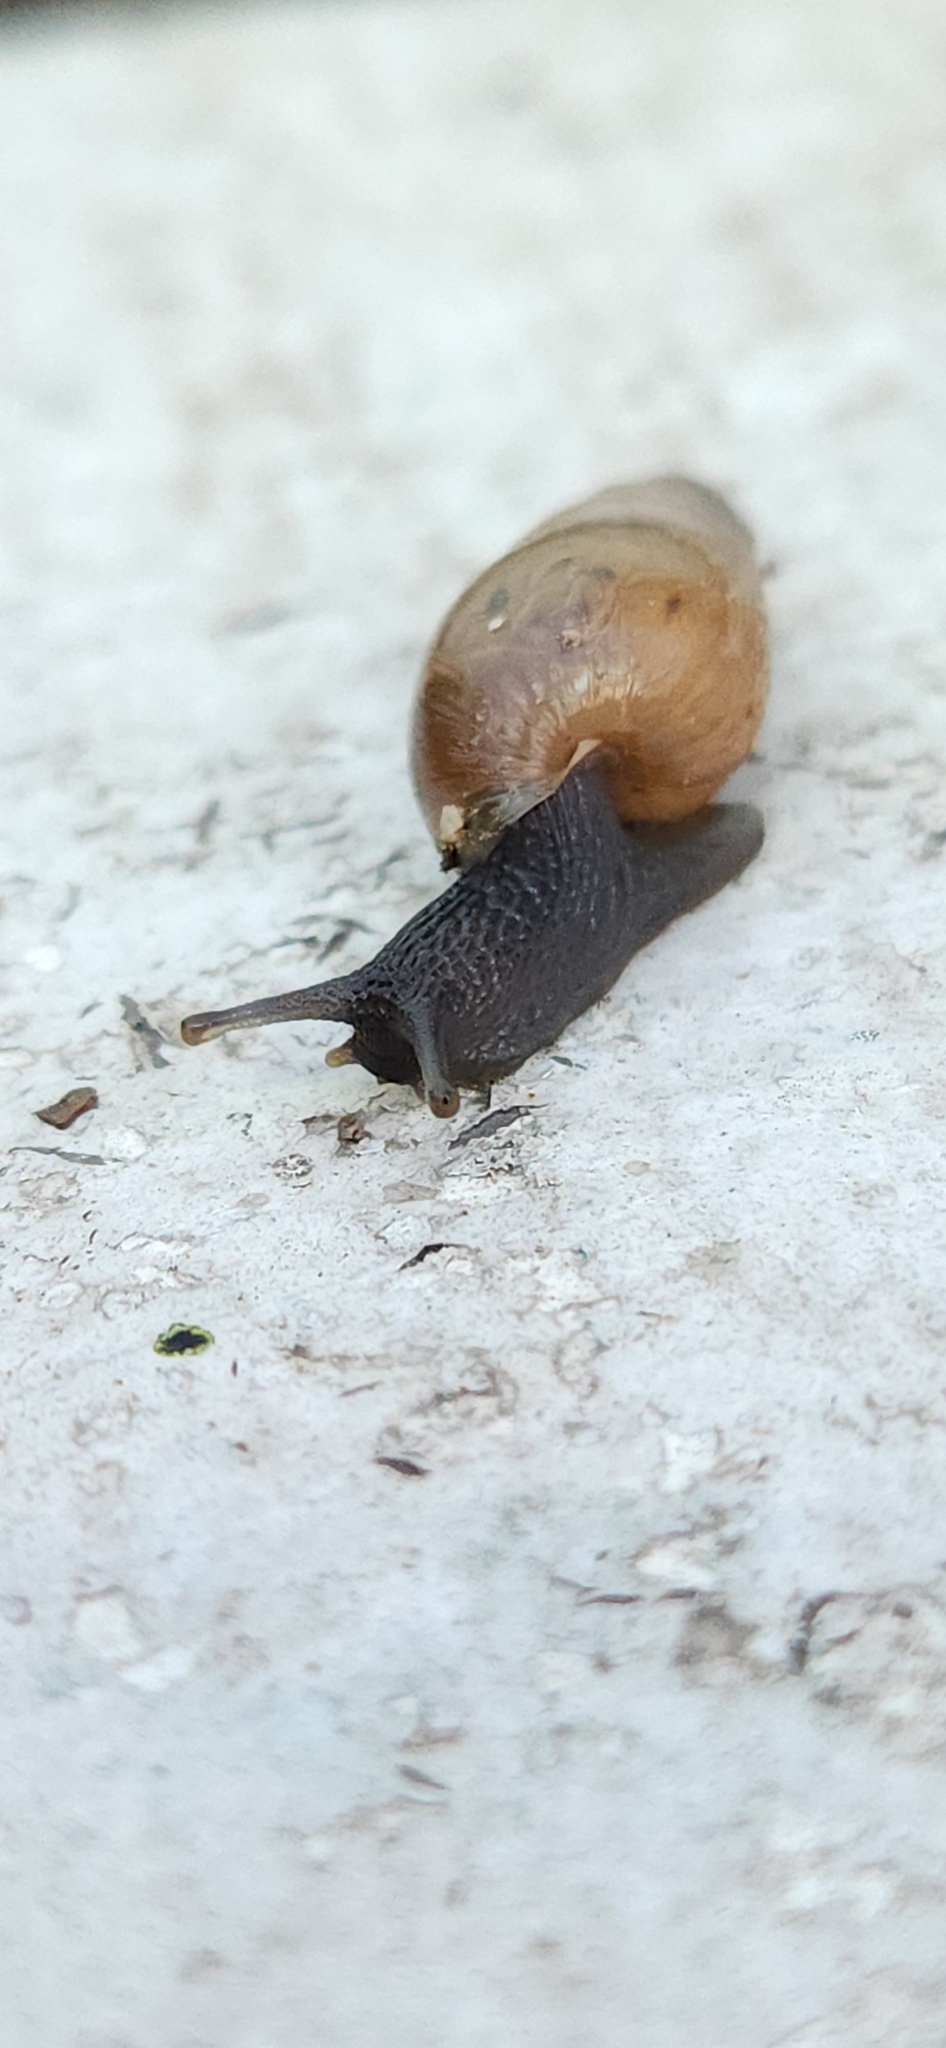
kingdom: Animalia
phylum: Mollusca
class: Gastropoda
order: Stylommatophora
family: Achatinidae
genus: Rumina
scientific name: Rumina decollata
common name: Decollate snail
